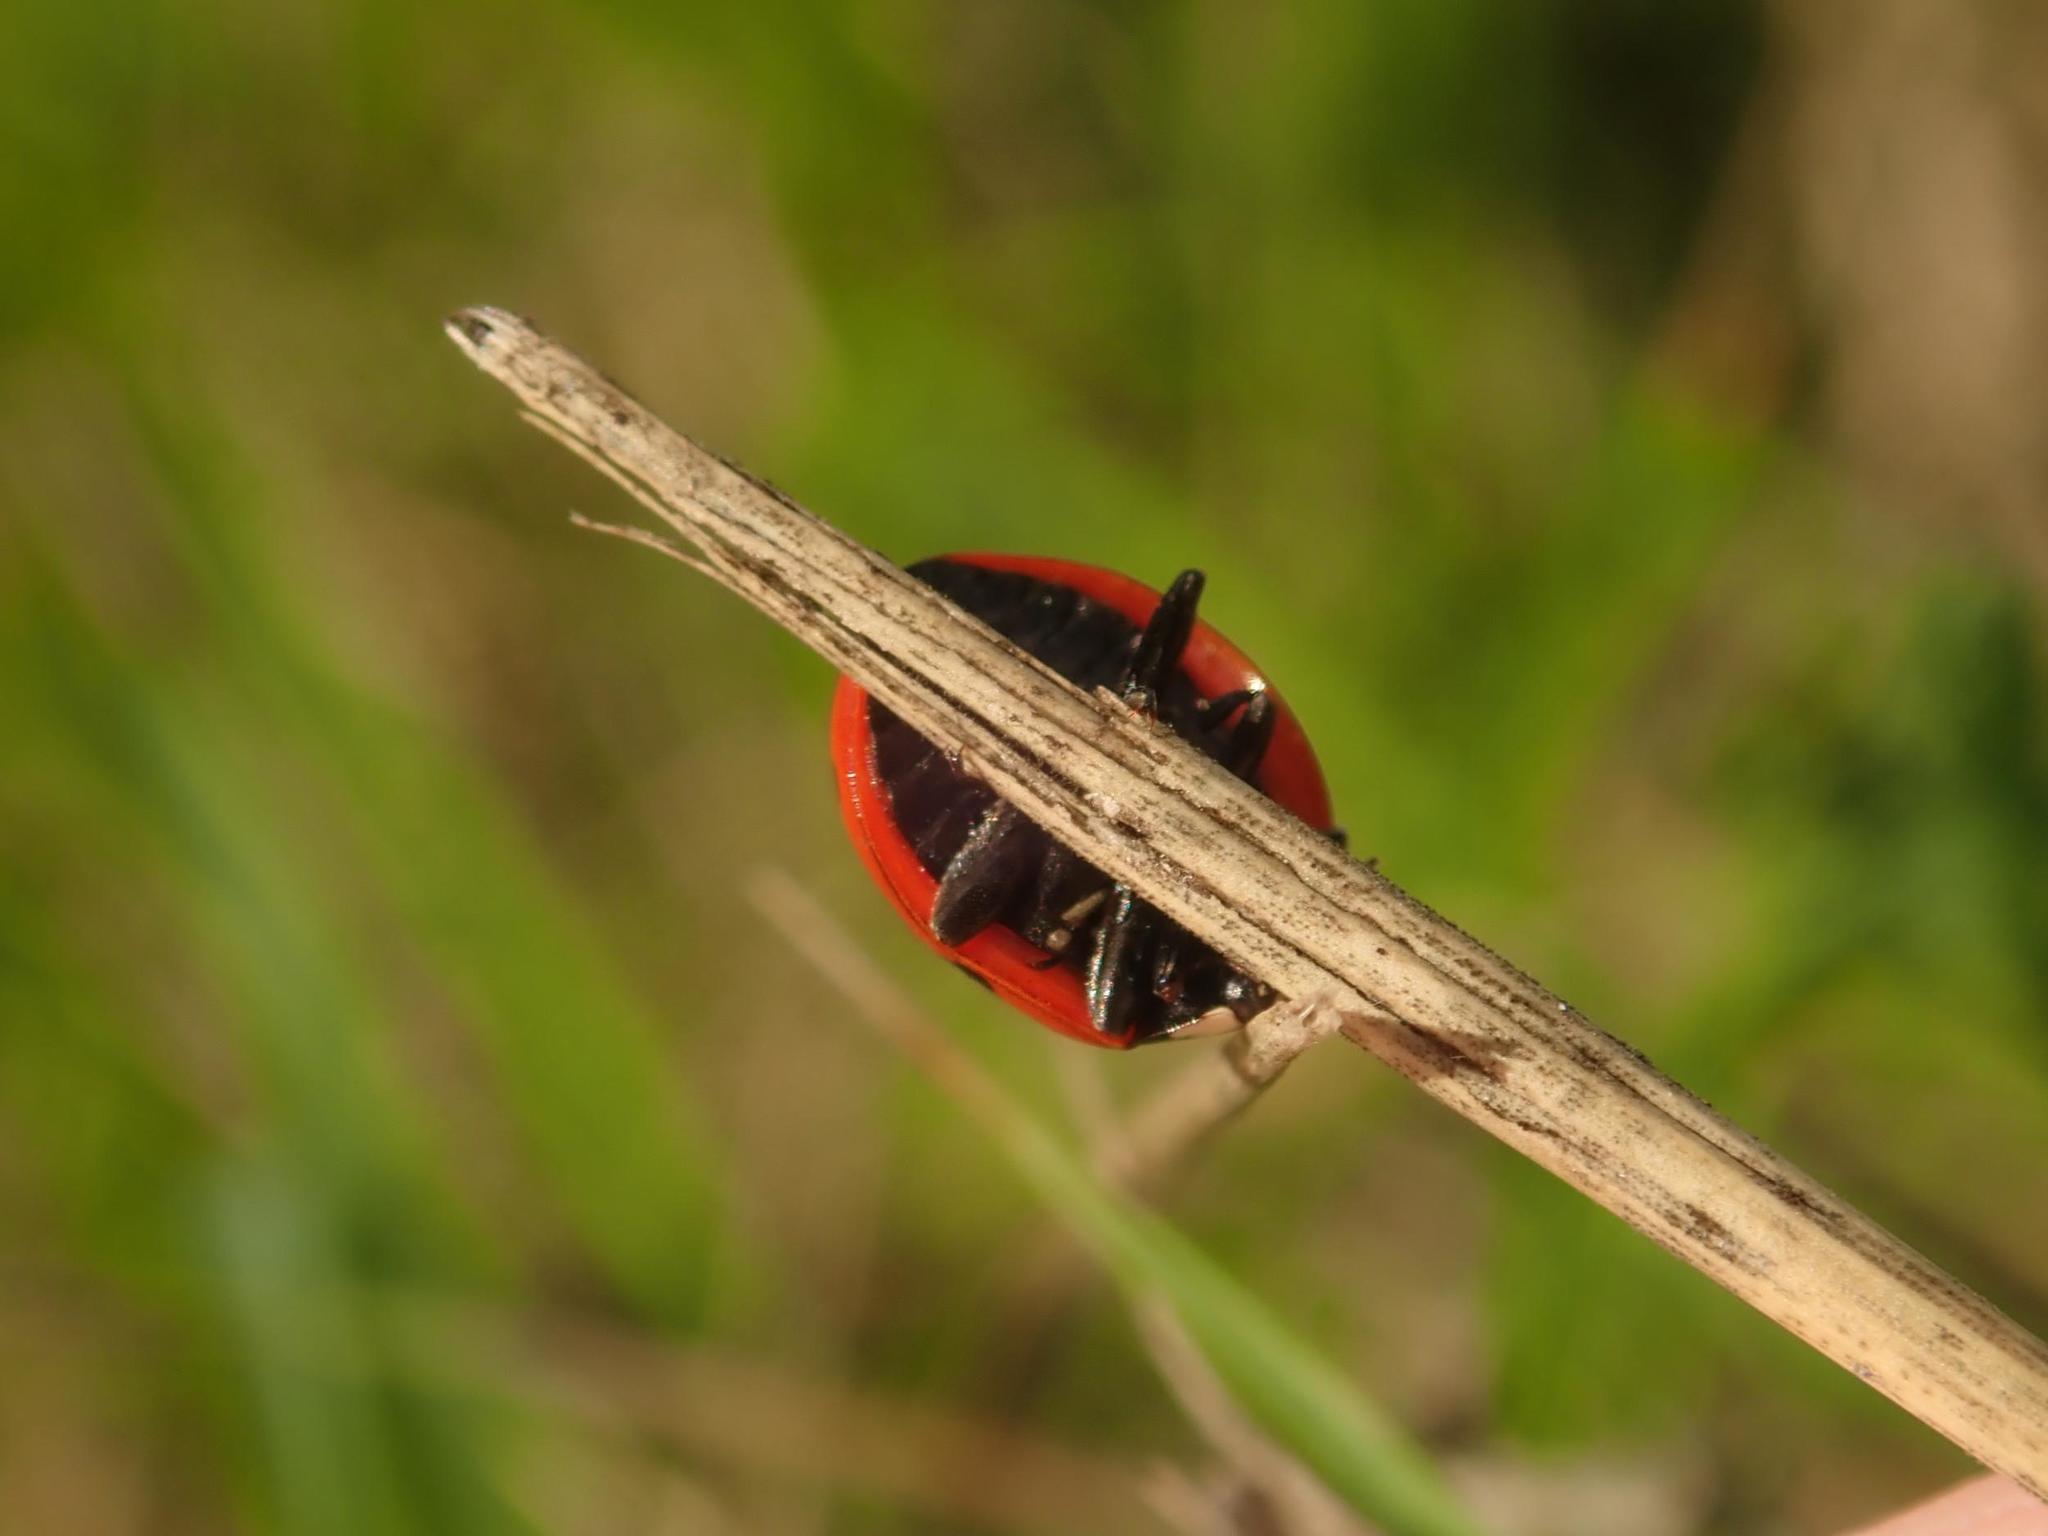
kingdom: Animalia
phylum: Arthropoda
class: Insecta
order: Coleoptera
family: Coccinellidae
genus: Coccinella
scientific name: Coccinella septempunctata
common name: Sevenspotted lady beetle
